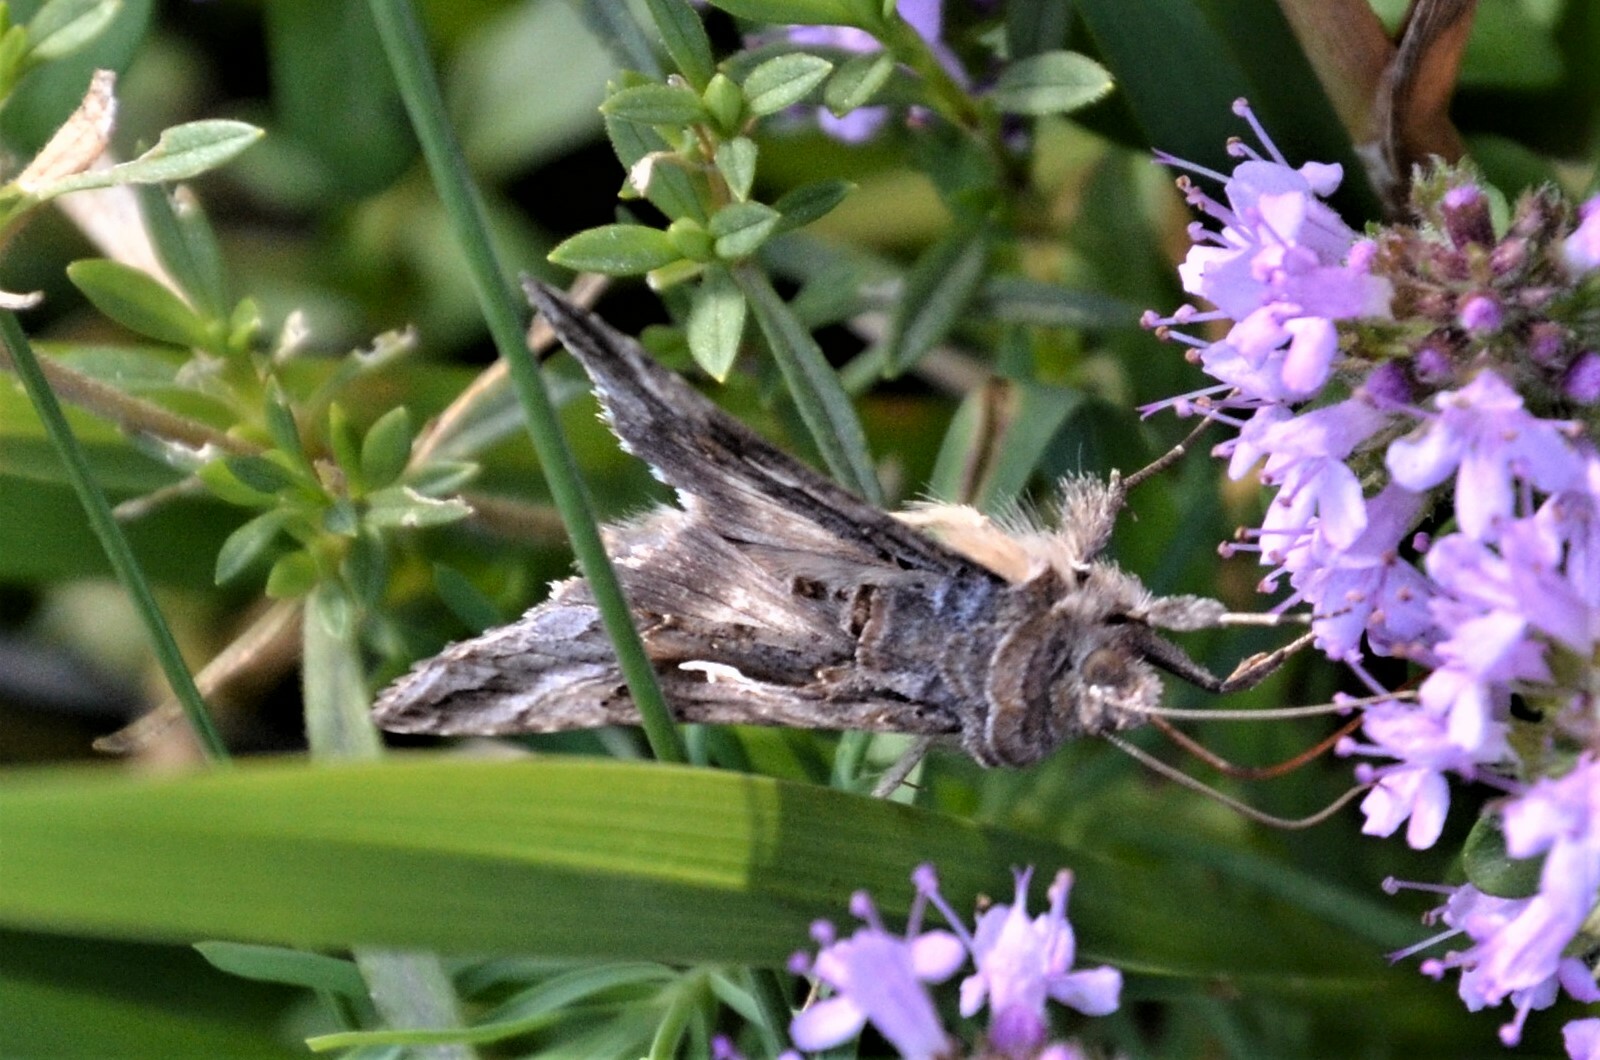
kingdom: Animalia
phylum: Arthropoda
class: Insecta
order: Lepidoptera
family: Noctuidae
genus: Autographa
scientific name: Autographa gamma
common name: Silver y
